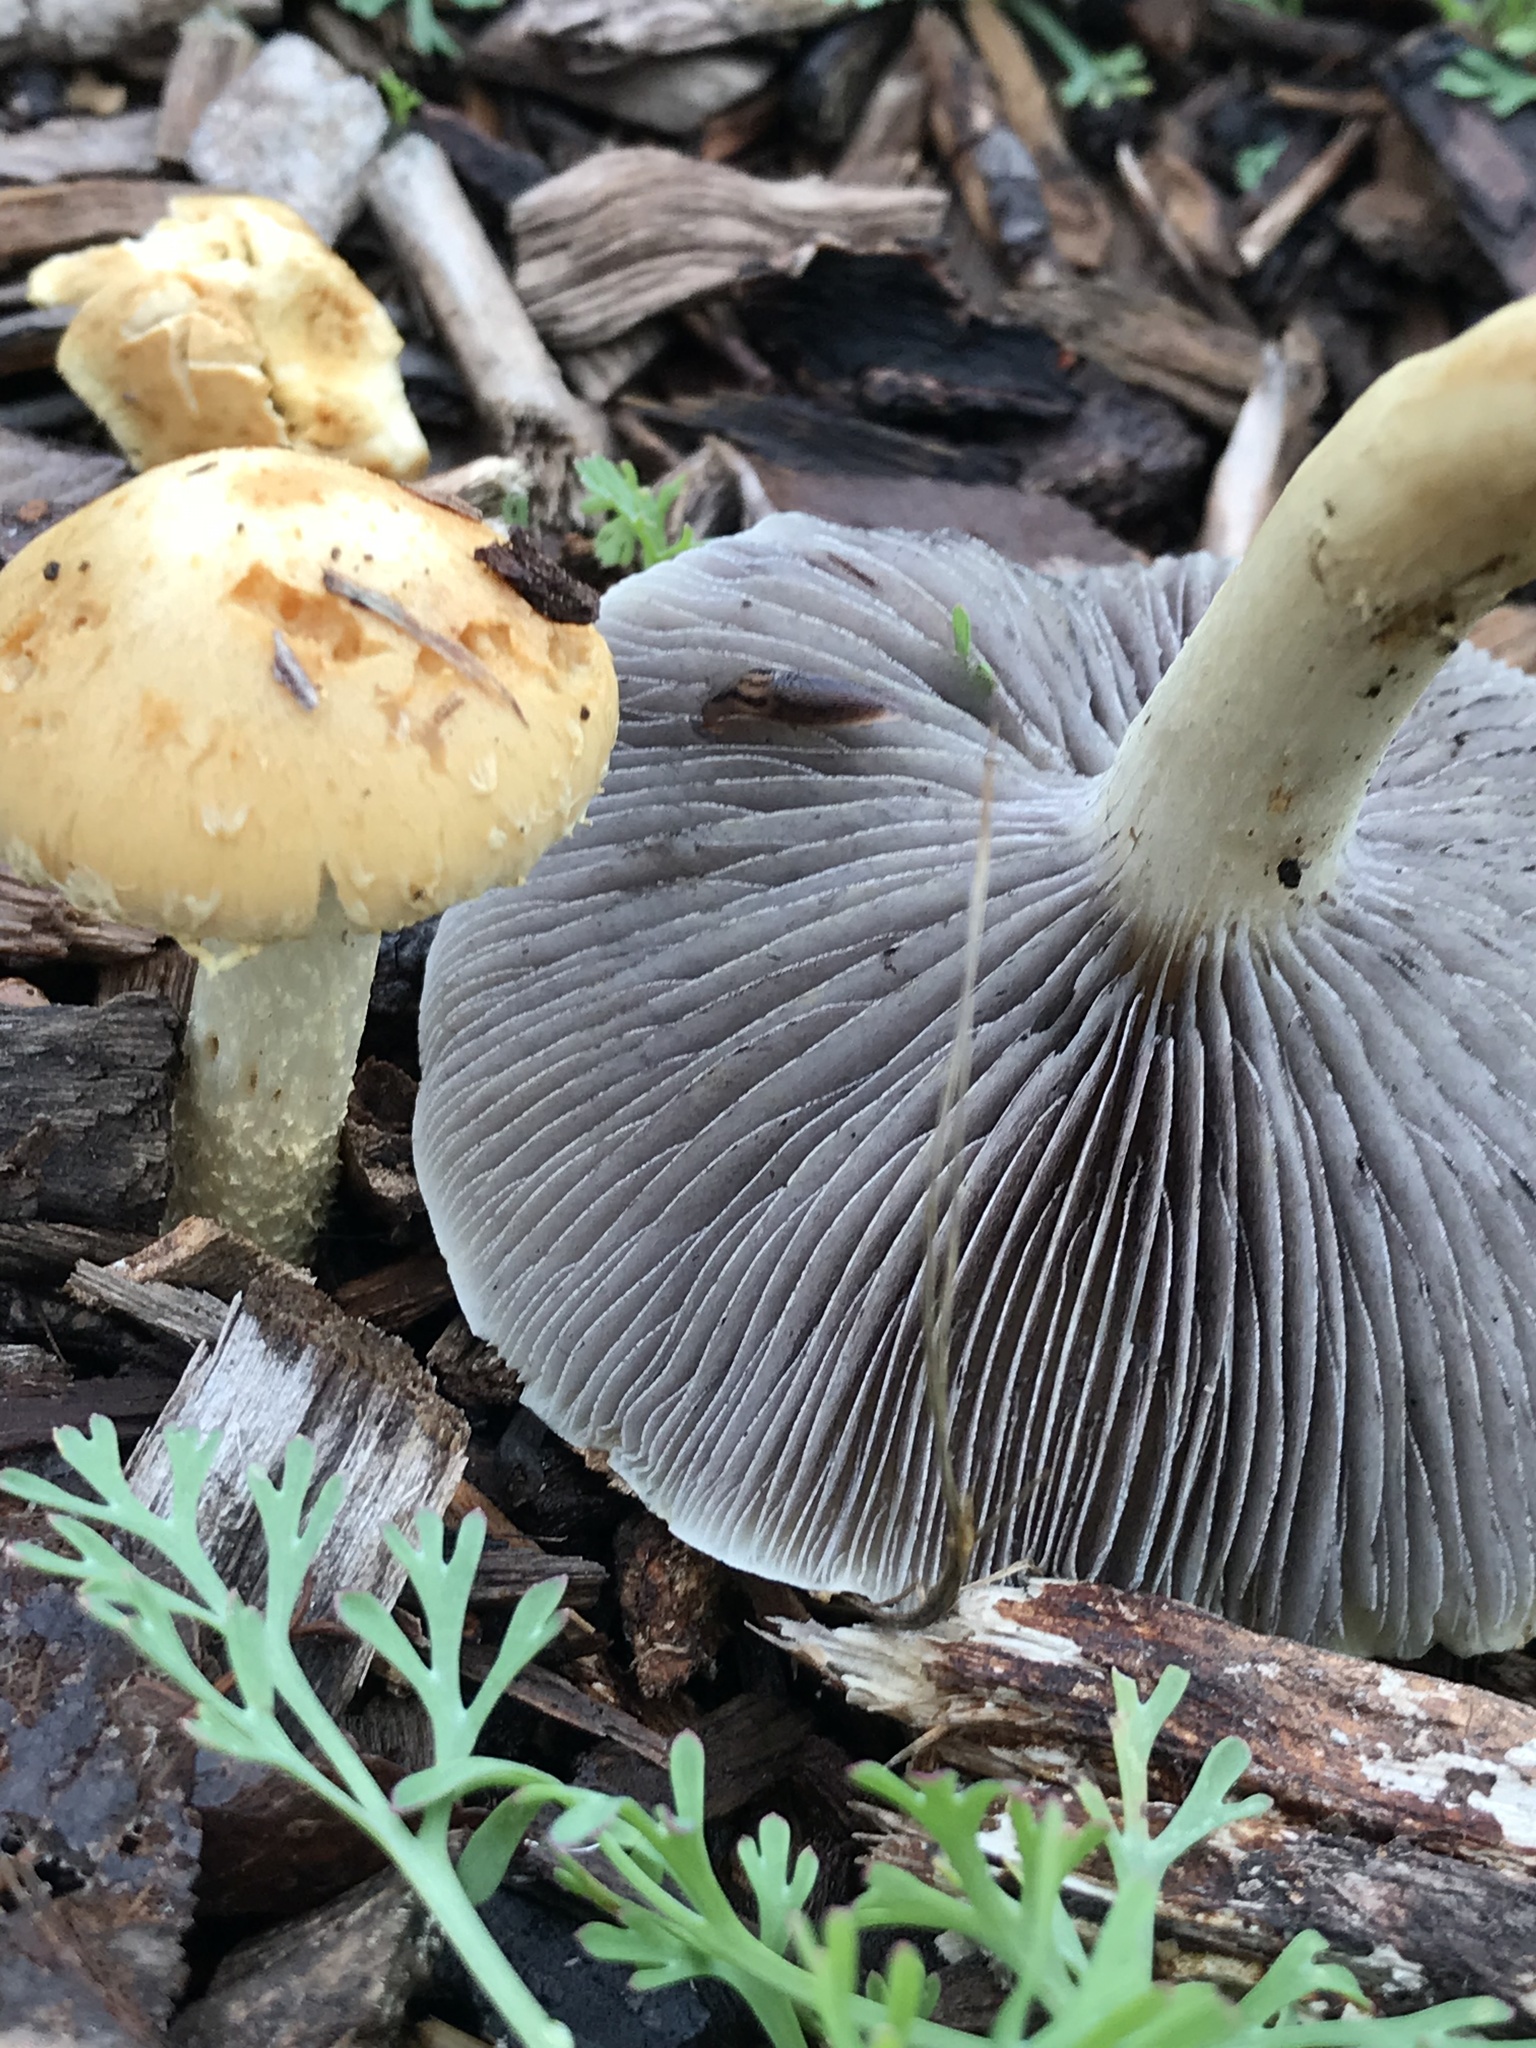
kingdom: Fungi
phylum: Basidiomycota
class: Agaricomycetes
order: Agaricales
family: Strophariaceae
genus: Leratiomyces
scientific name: Leratiomyces percevalii
